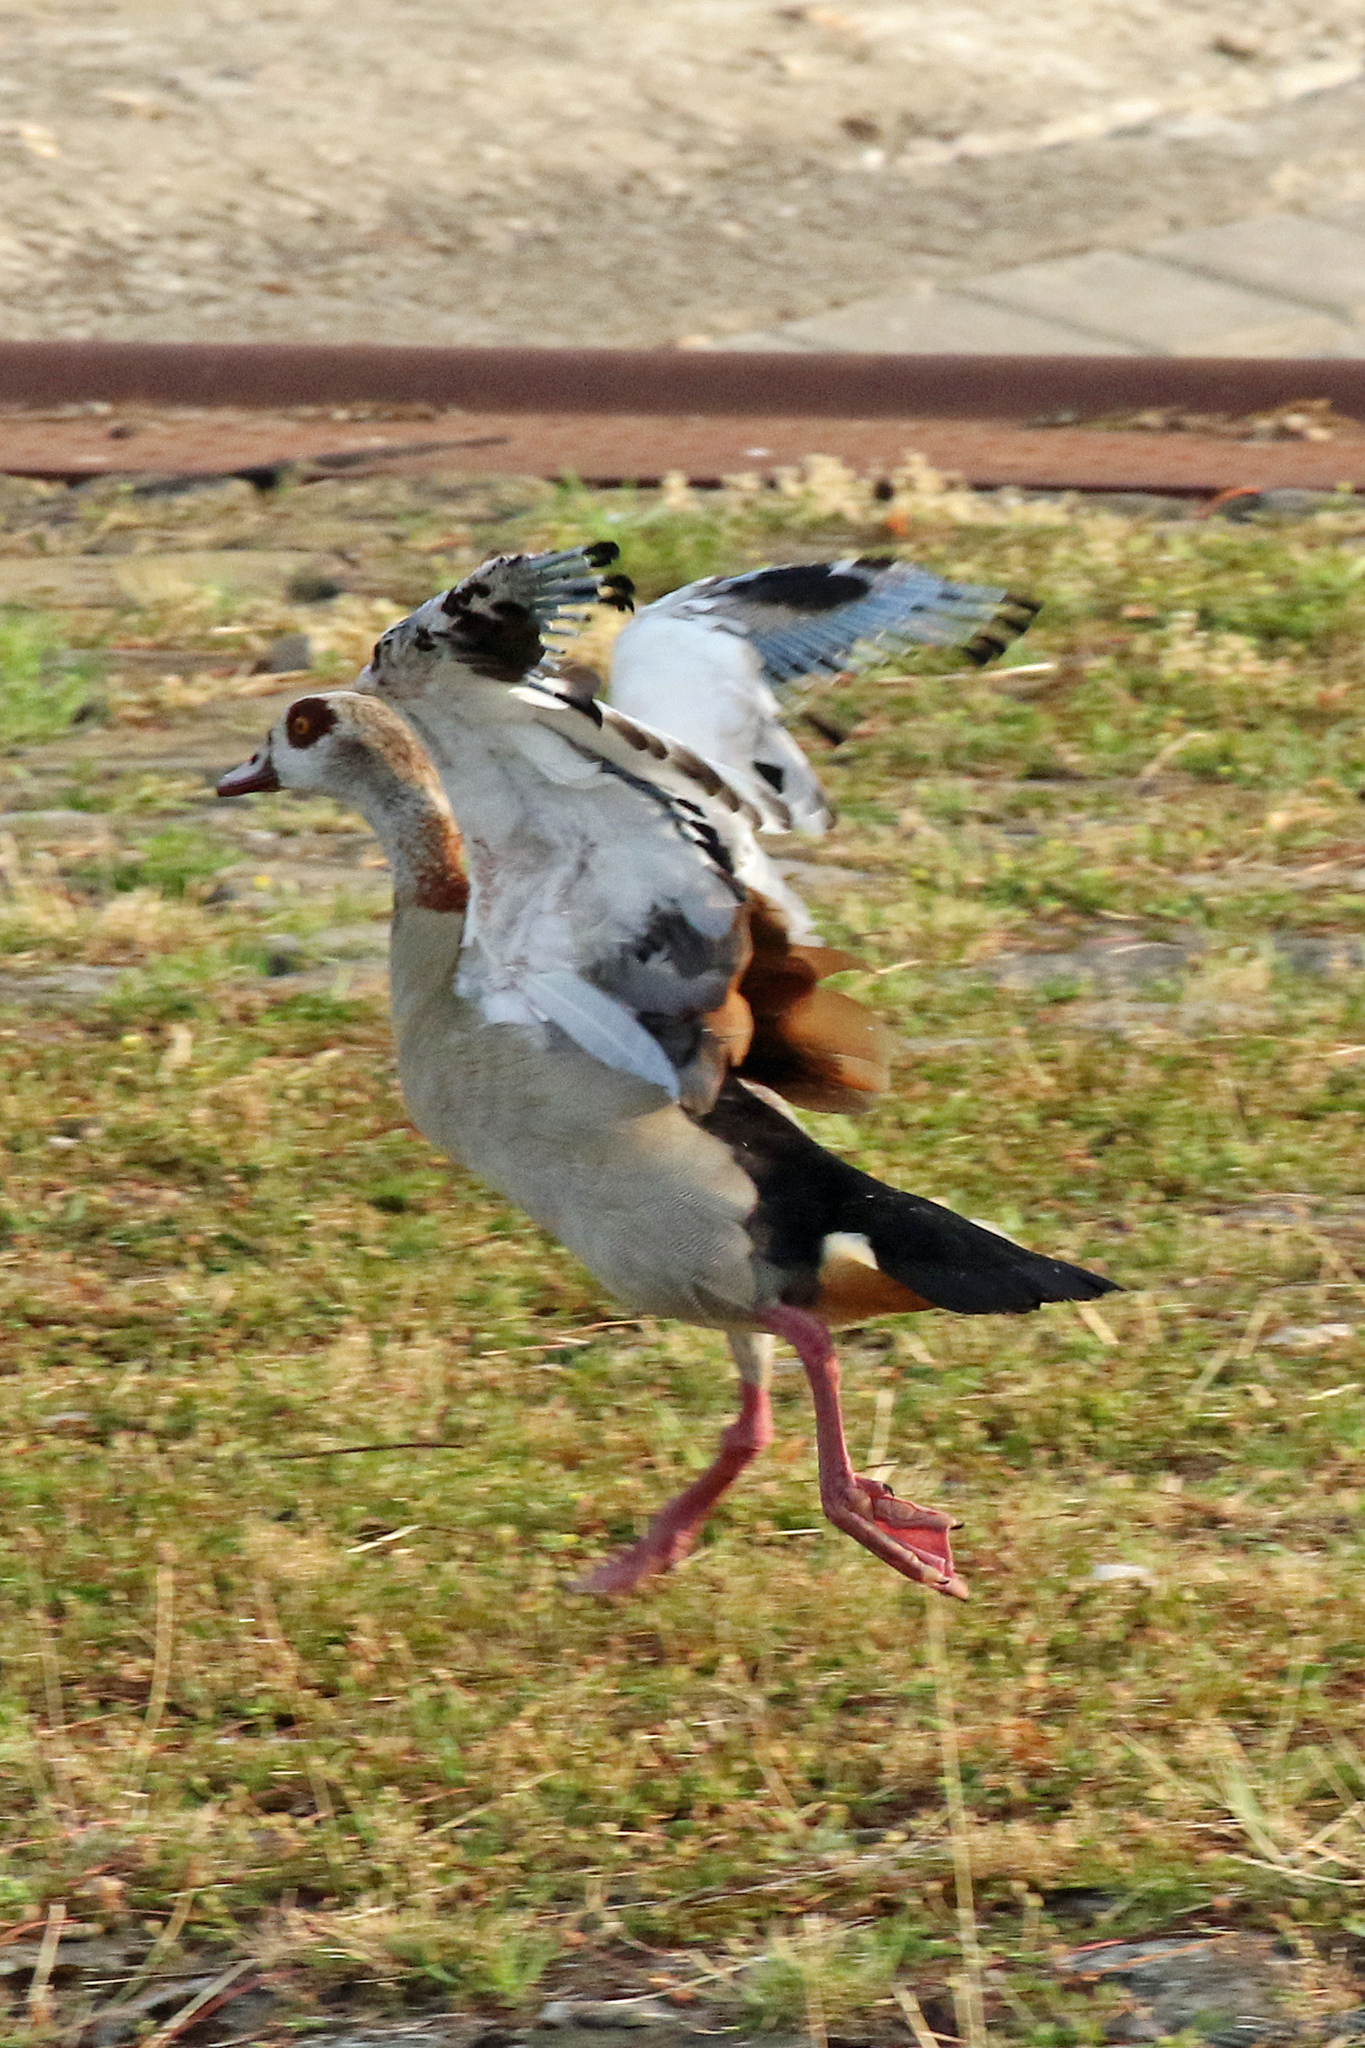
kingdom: Animalia
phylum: Chordata
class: Aves
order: Anseriformes
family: Anatidae
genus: Alopochen
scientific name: Alopochen aegyptiaca
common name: Egyptian goose
